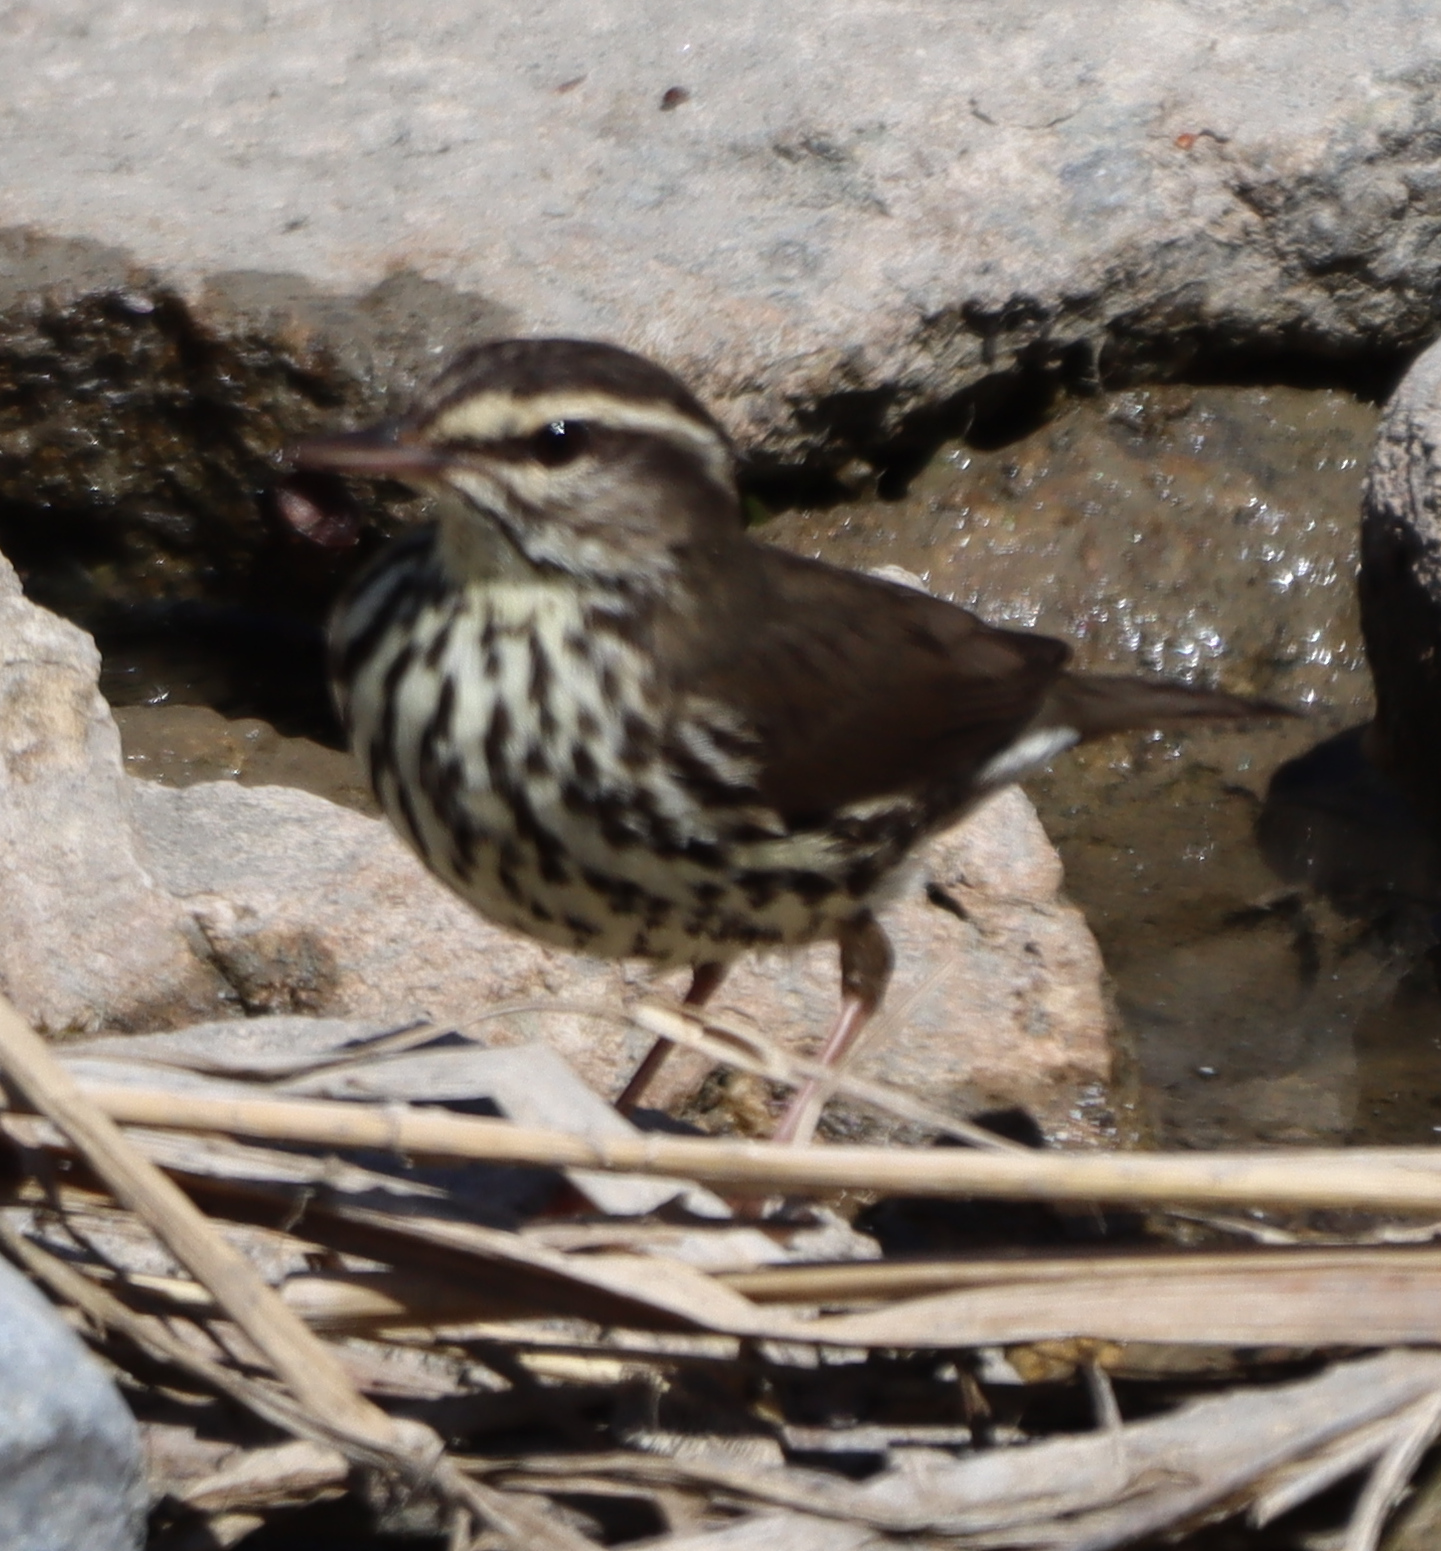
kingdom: Animalia
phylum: Chordata
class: Aves
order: Passeriformes
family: Parulidae
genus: Parkesia
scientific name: Parkesia noveboracensis
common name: Northern waterthrush
